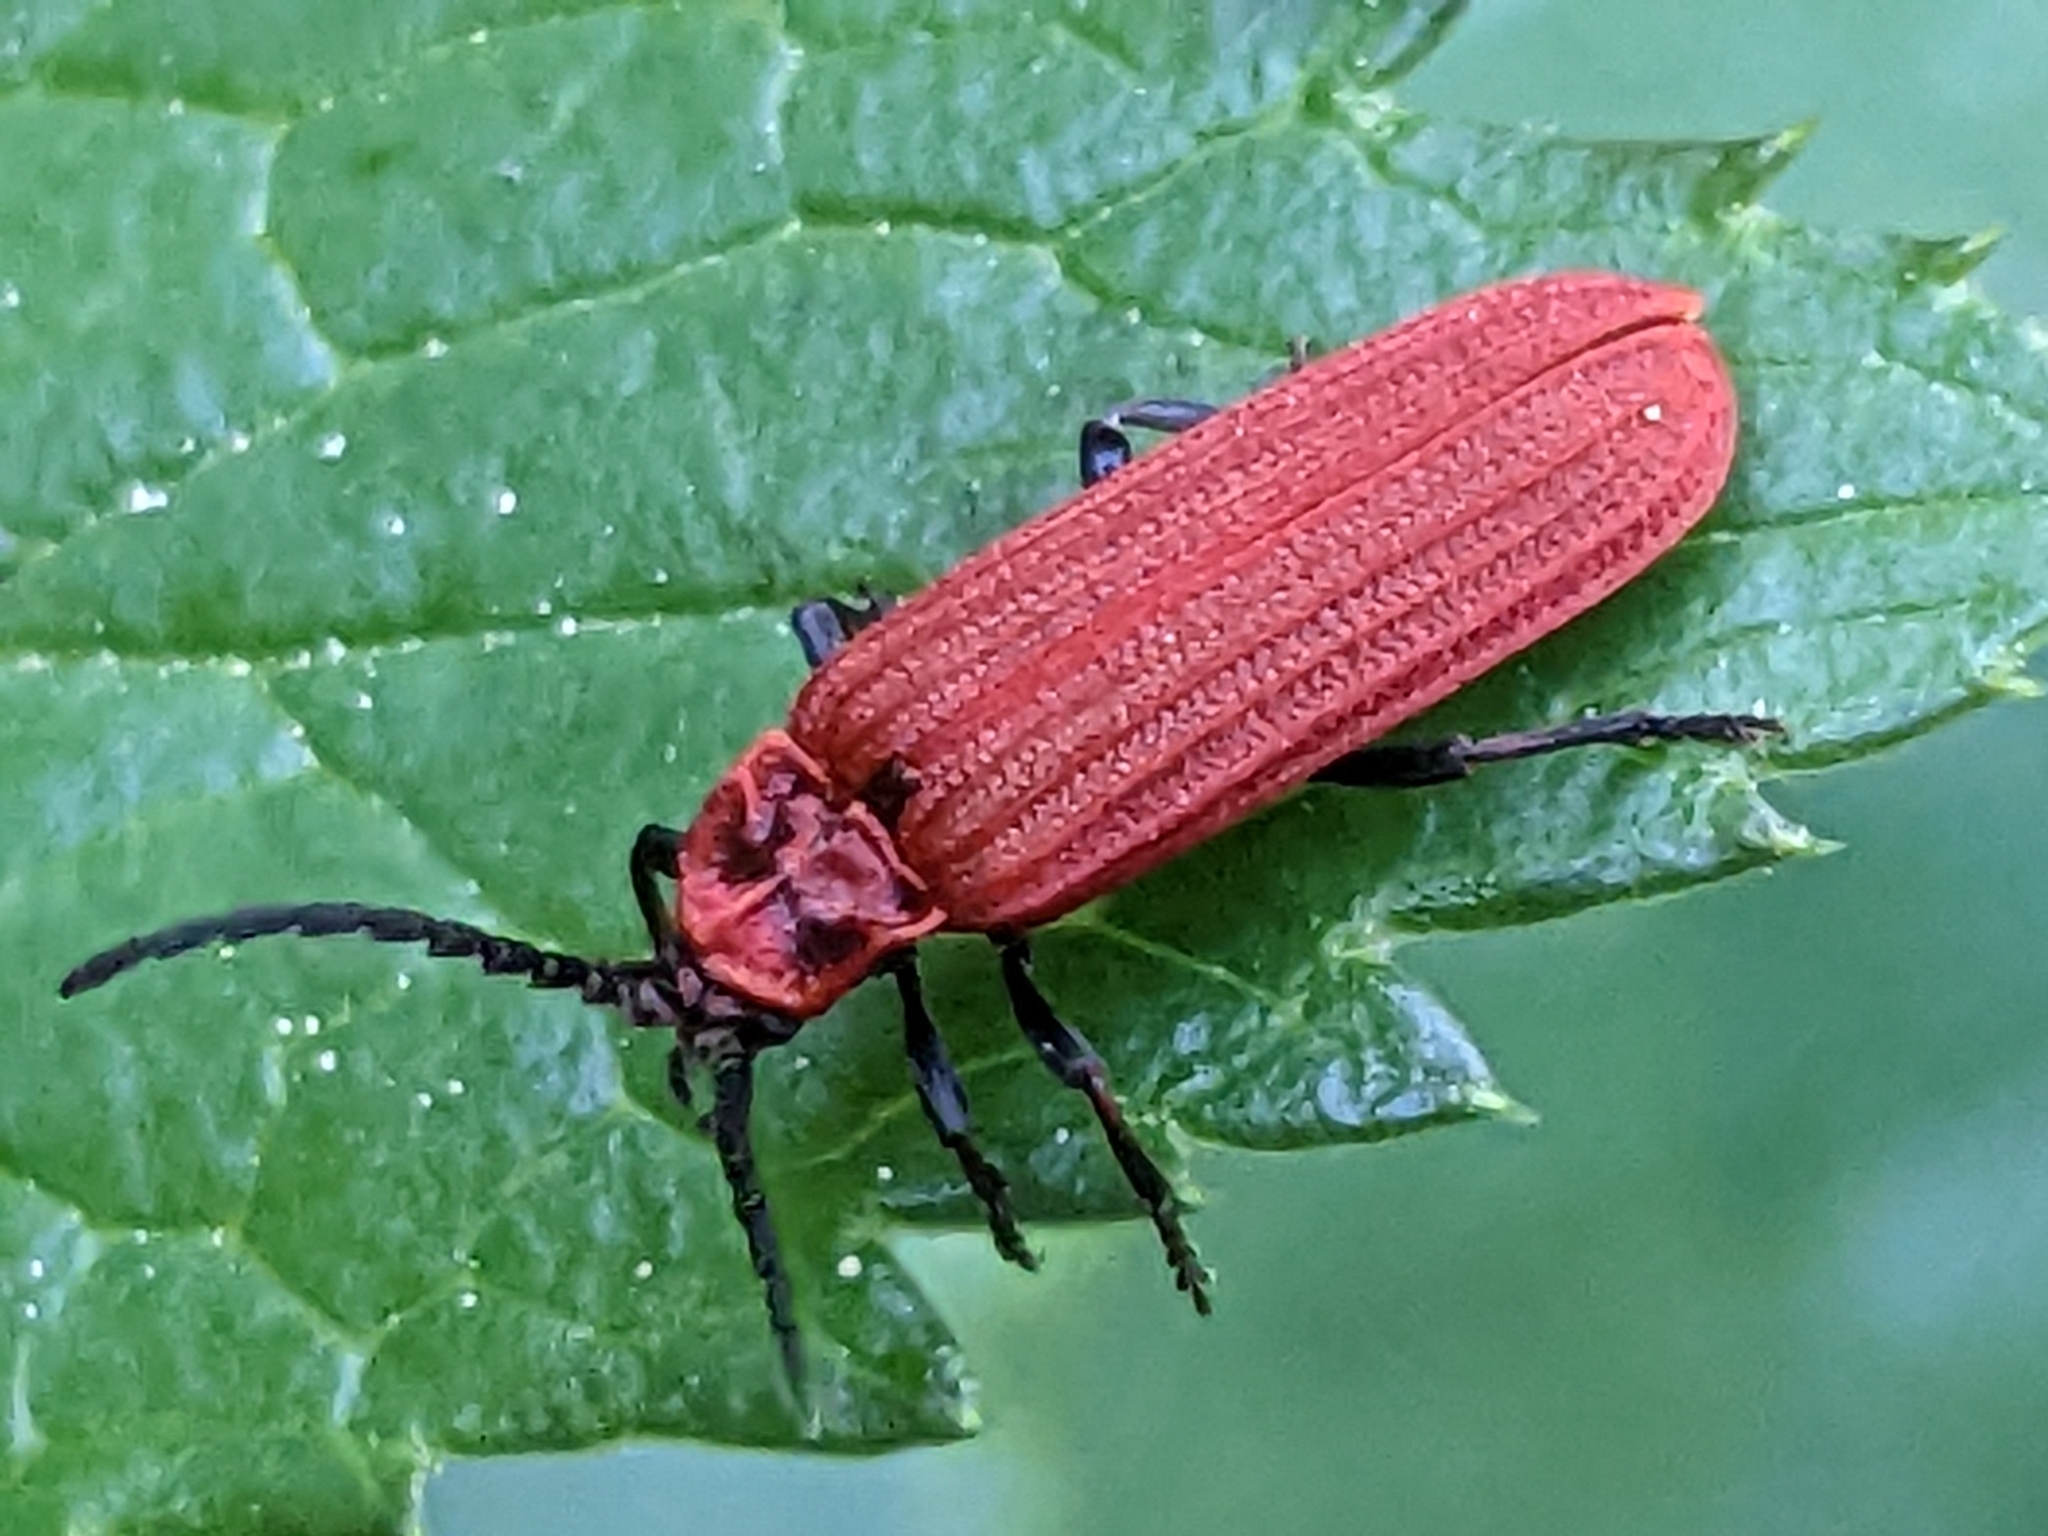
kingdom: Animalia
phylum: Arthropoda
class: Insecta
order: Coleoptera
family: Lycidae
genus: Lopheros
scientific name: Lopheros rubens
